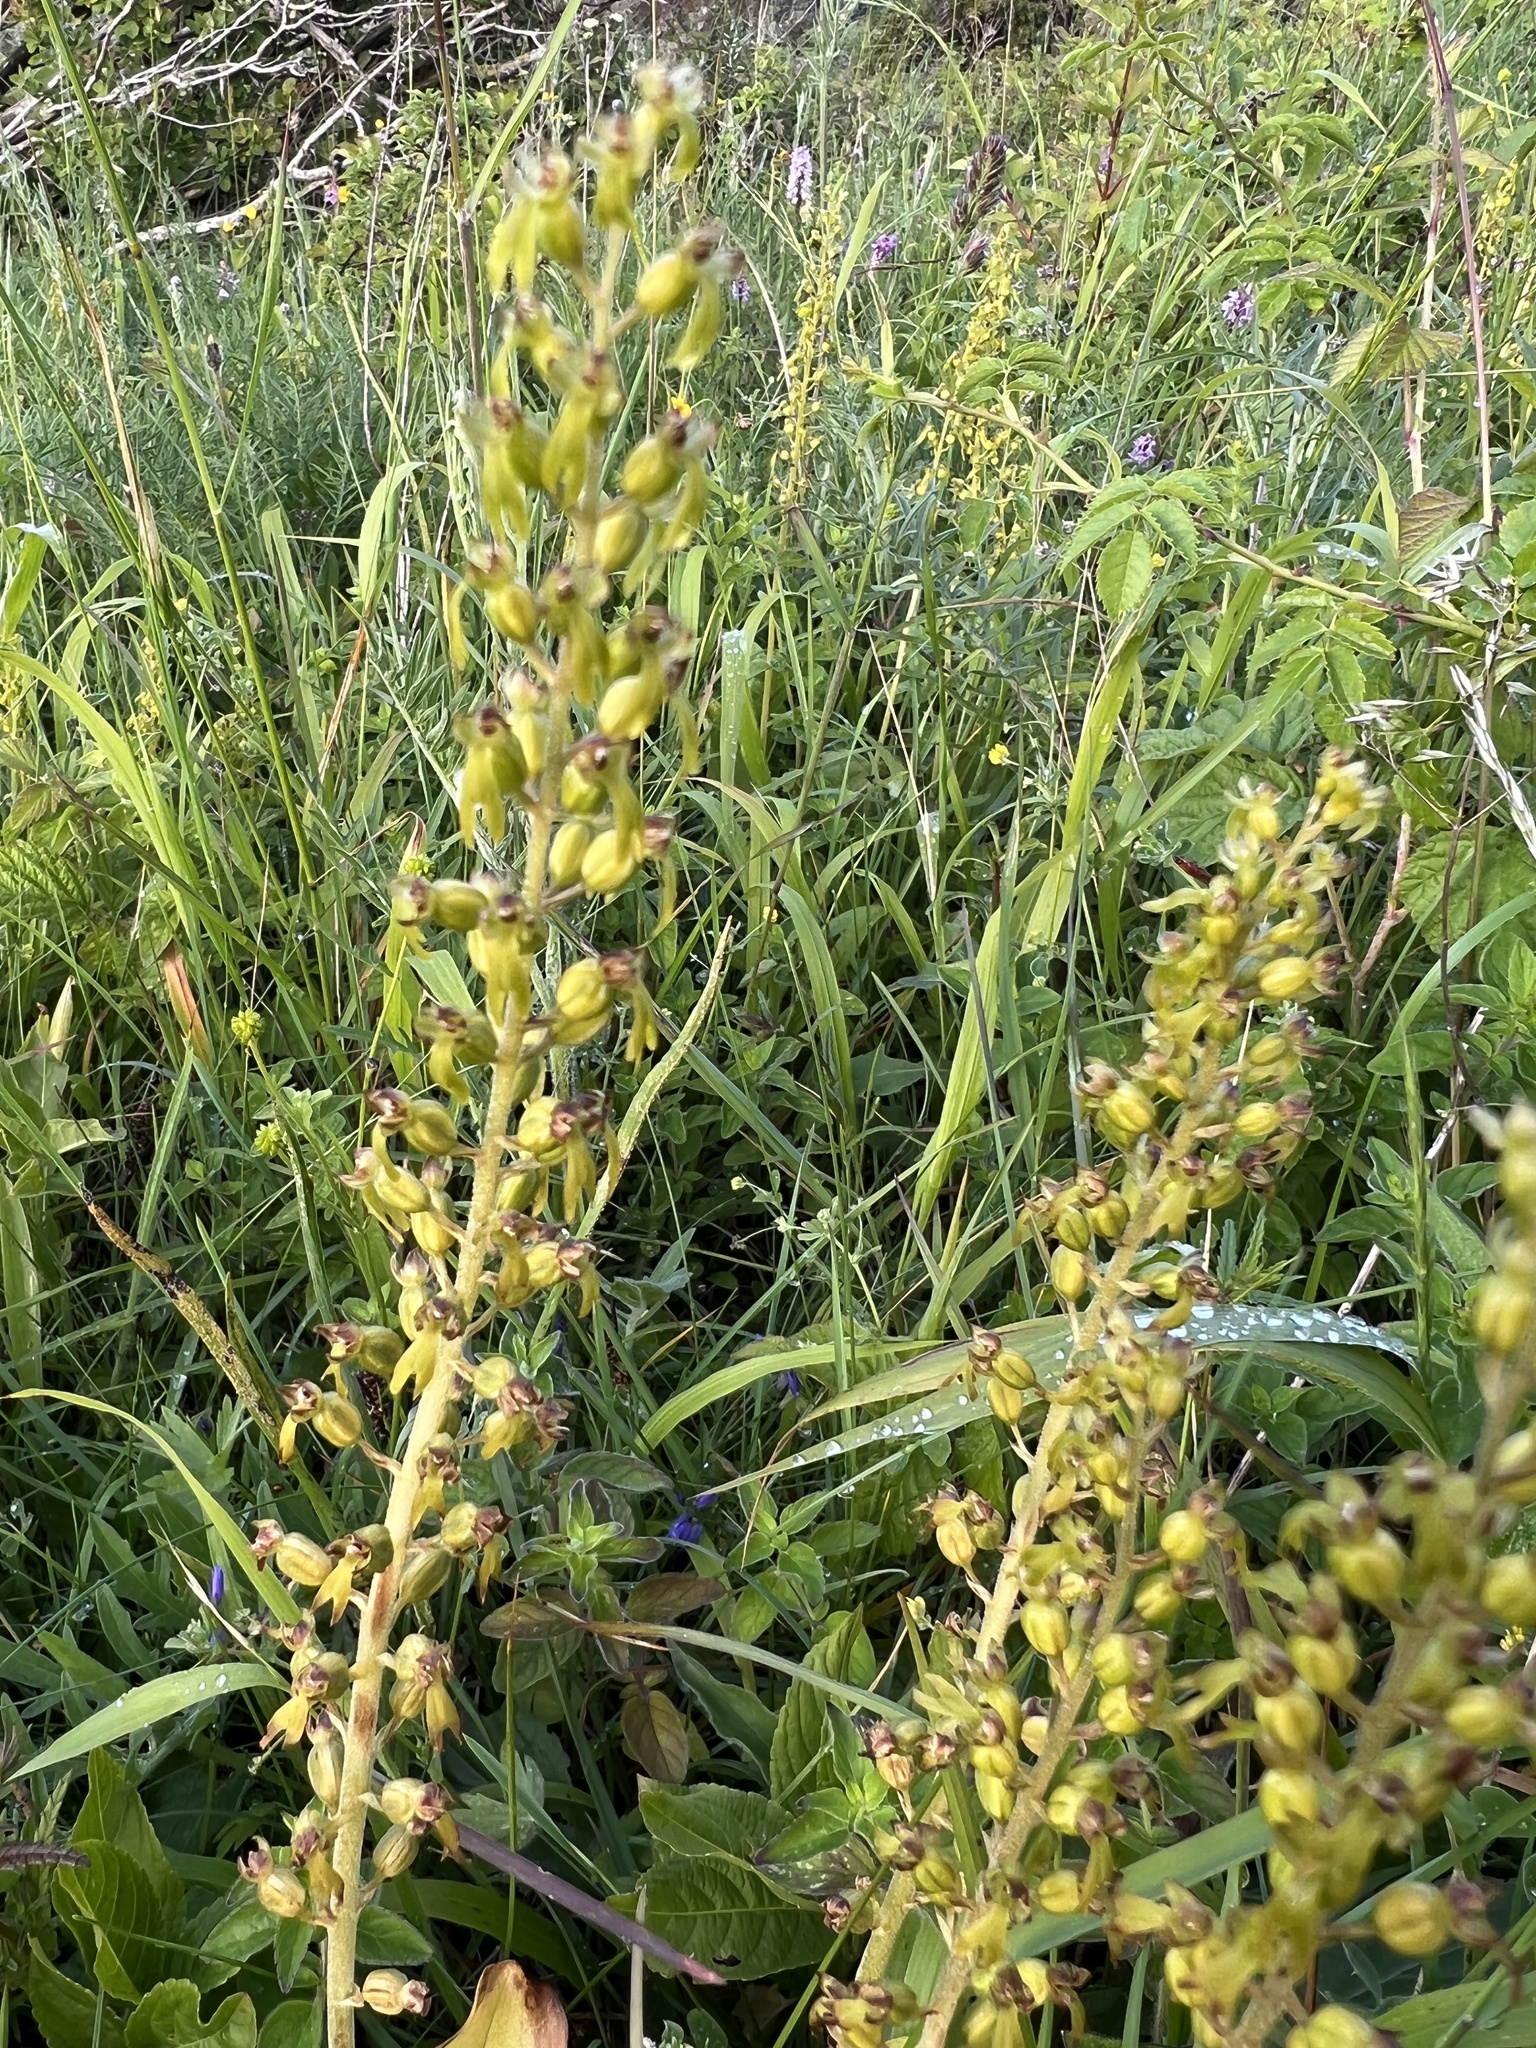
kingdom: Plantae
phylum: Tracheophyta
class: Liliopsida
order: Asparagales
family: Orchidaceae
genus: Neottia
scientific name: Neottia ovata
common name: Common twayblade
